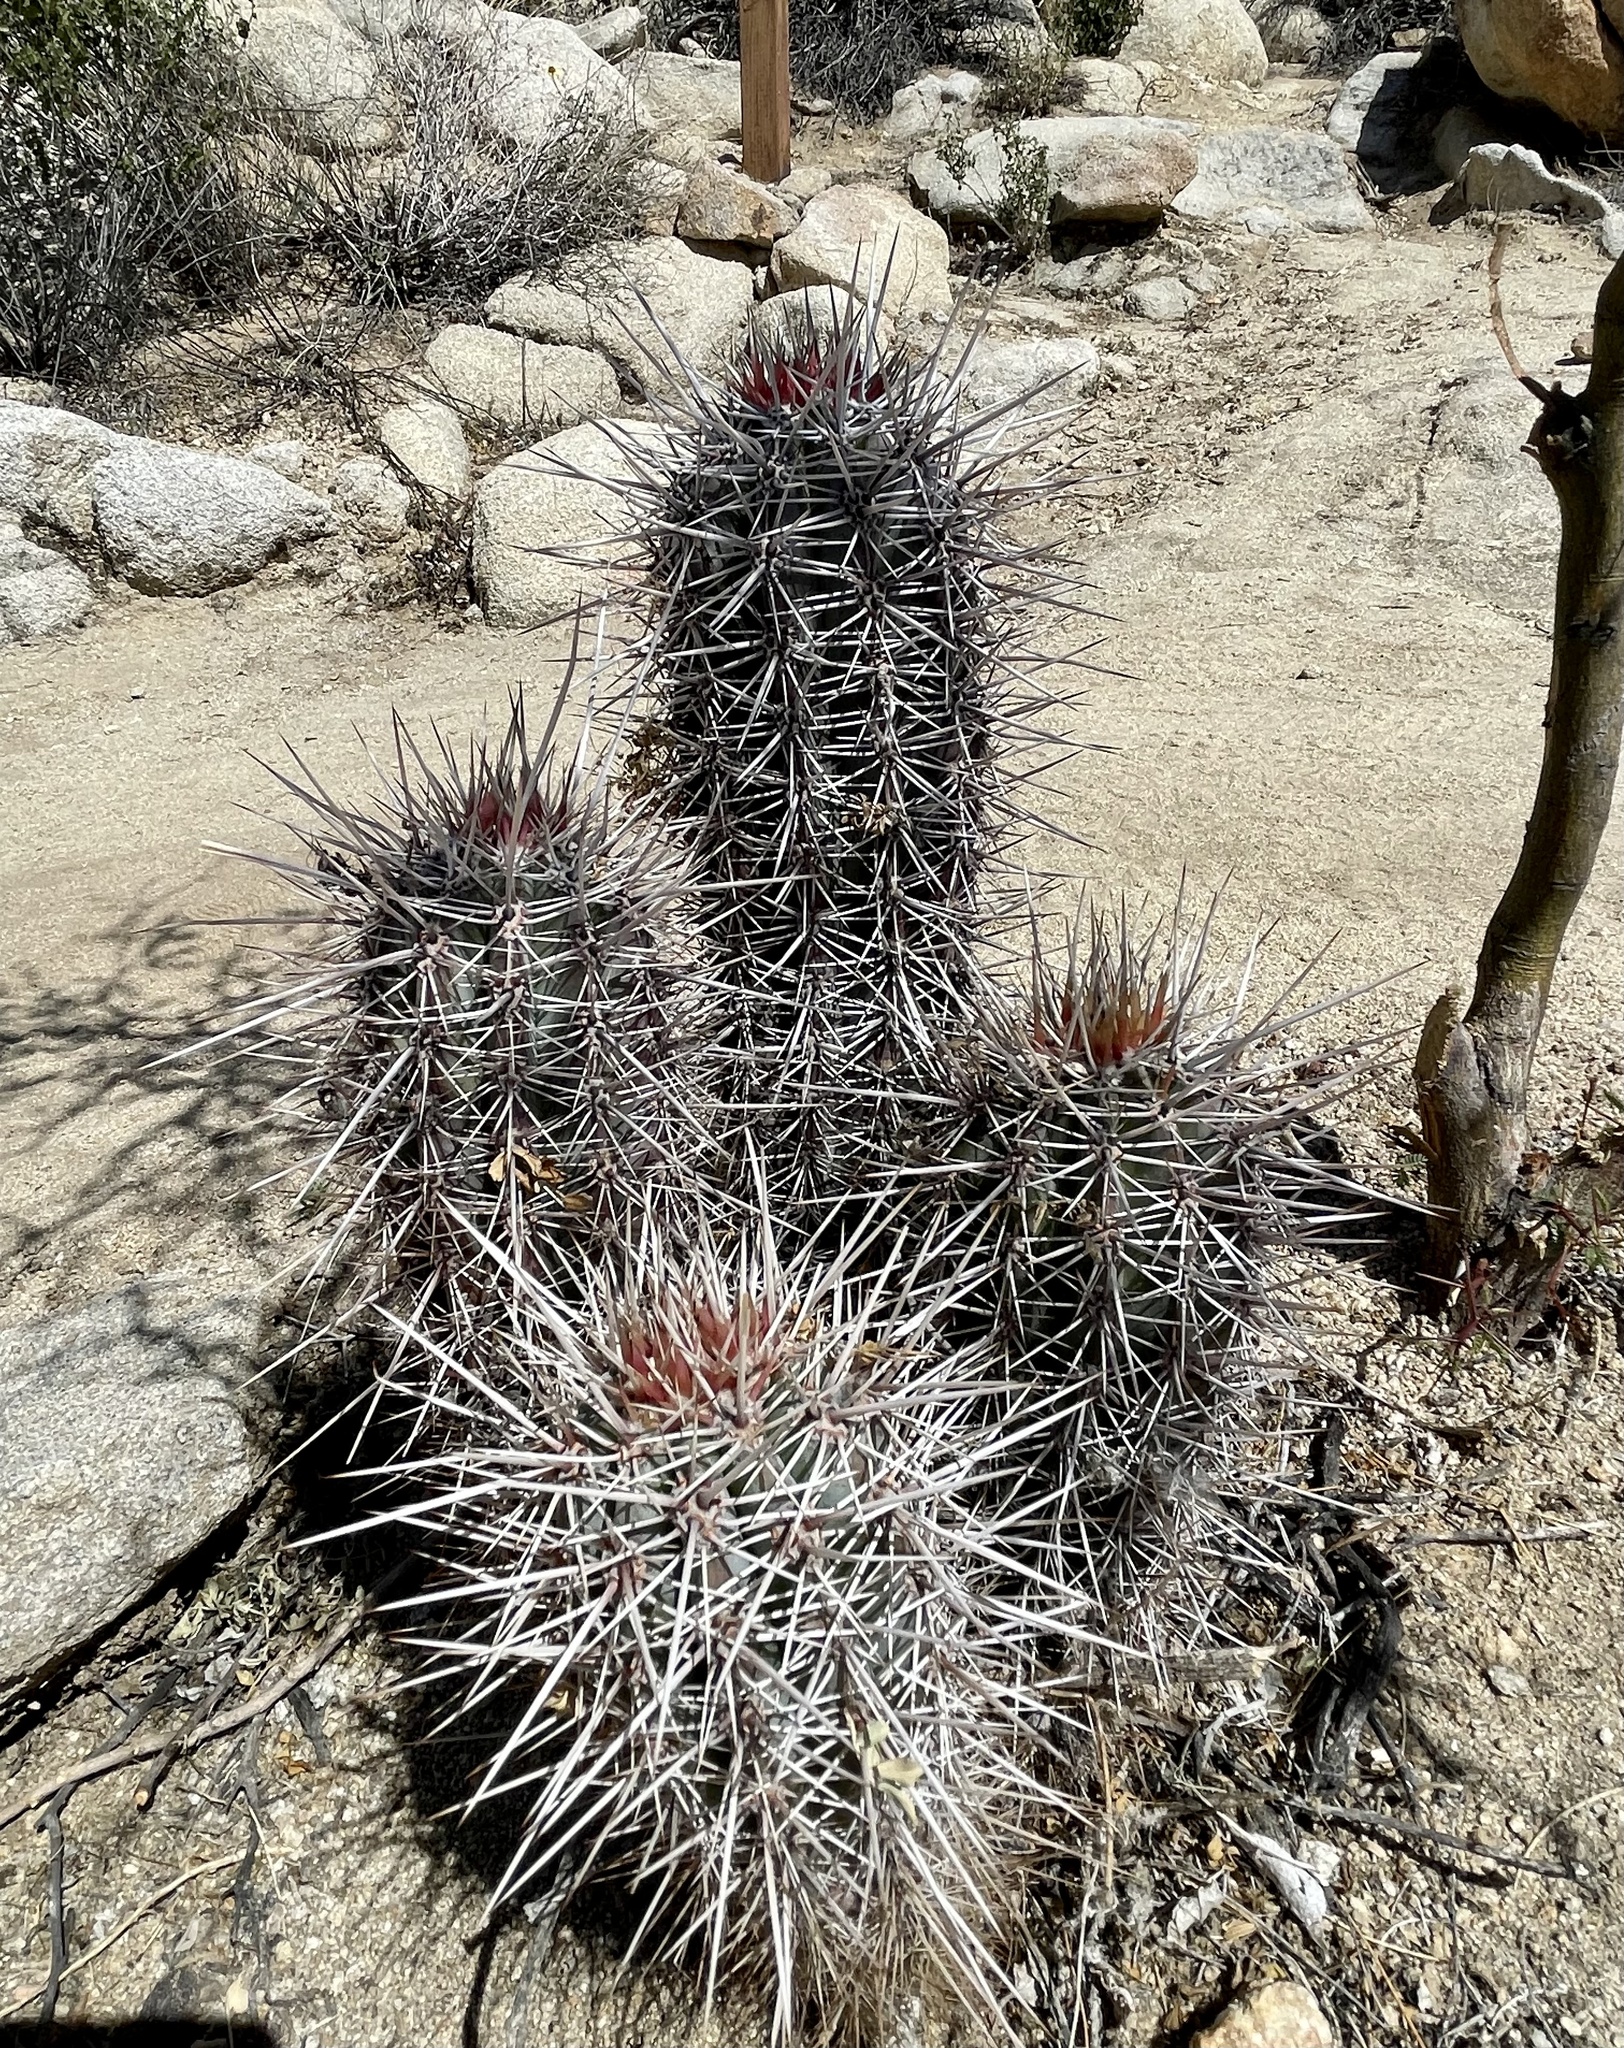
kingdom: Plantae
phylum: Tracheophyta
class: Magnoliopsida
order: Caryophyllales
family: Cactaceae
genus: Pachycereus
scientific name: Pachycereus pringlei
